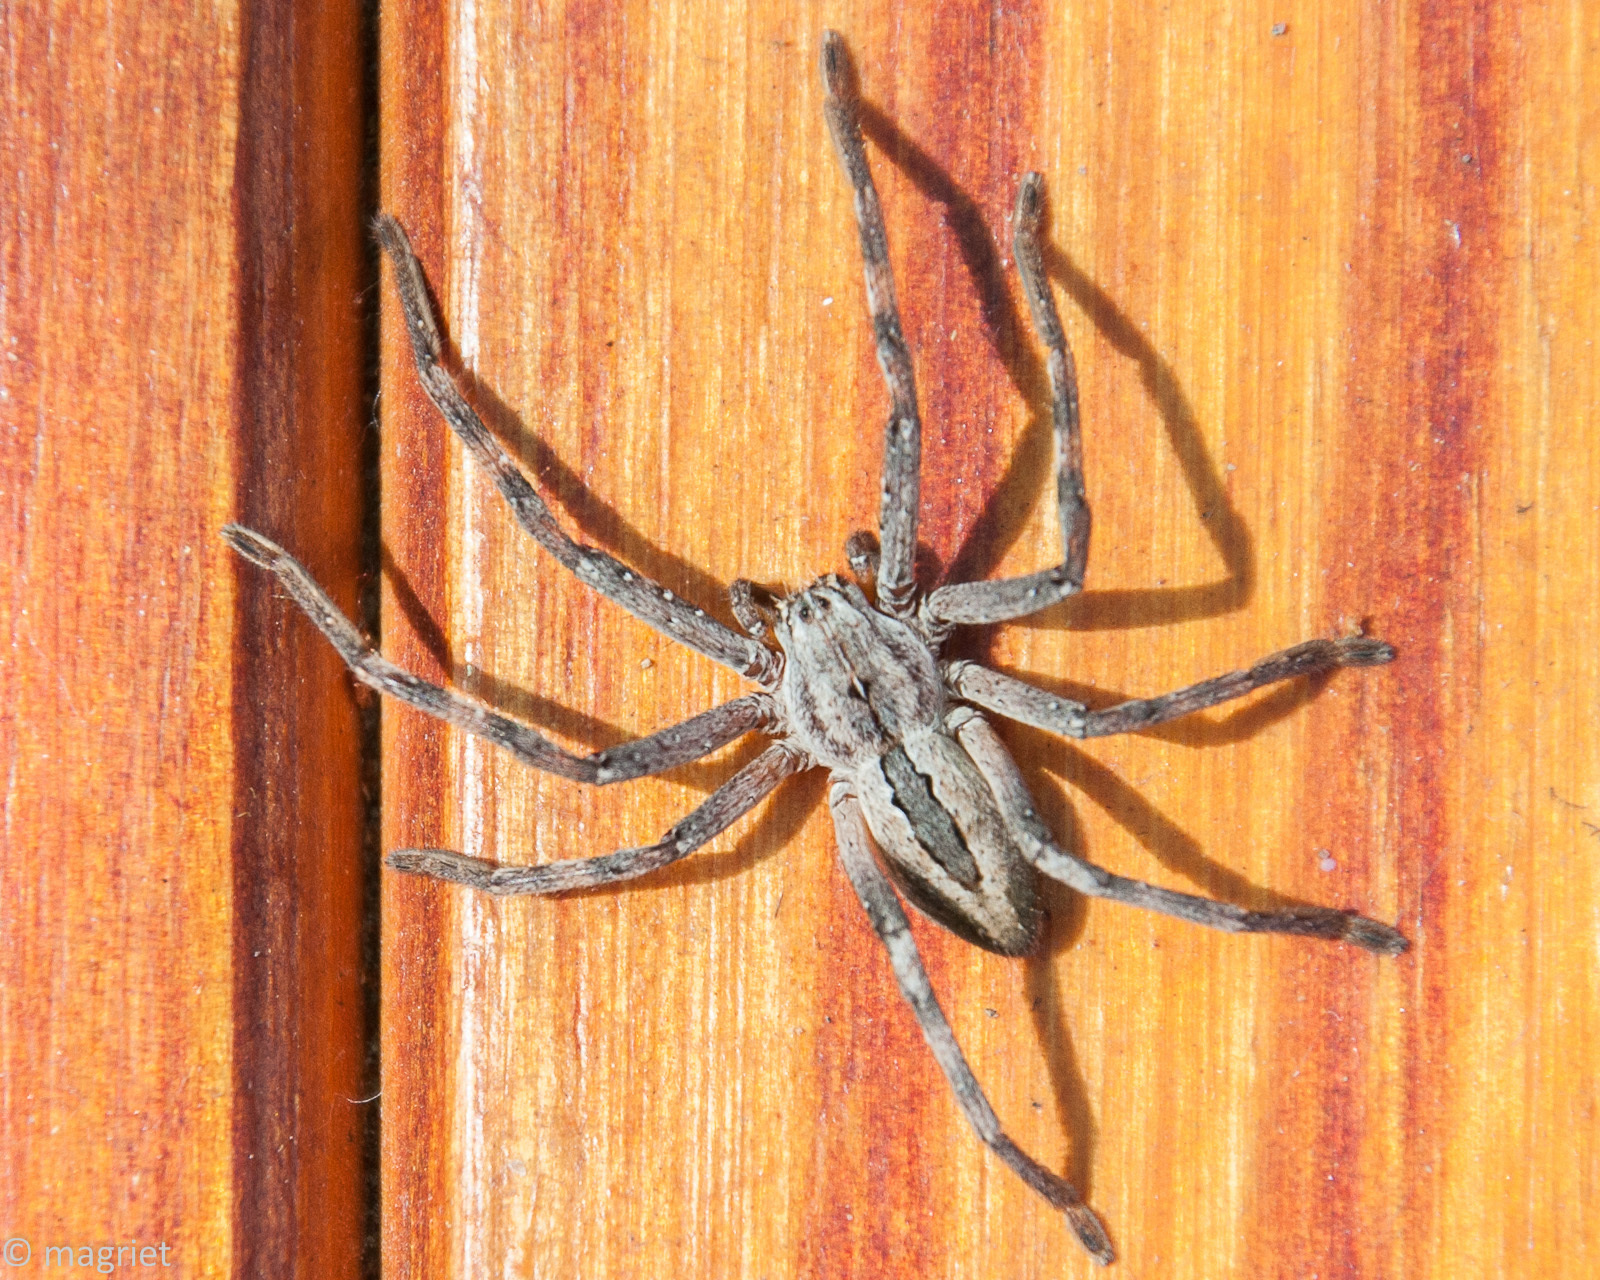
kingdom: Animalia
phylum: Arthropoda
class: Arachnida
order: Araneae
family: Sparassidae
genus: Palystes
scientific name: Palystes kreutzmanni
